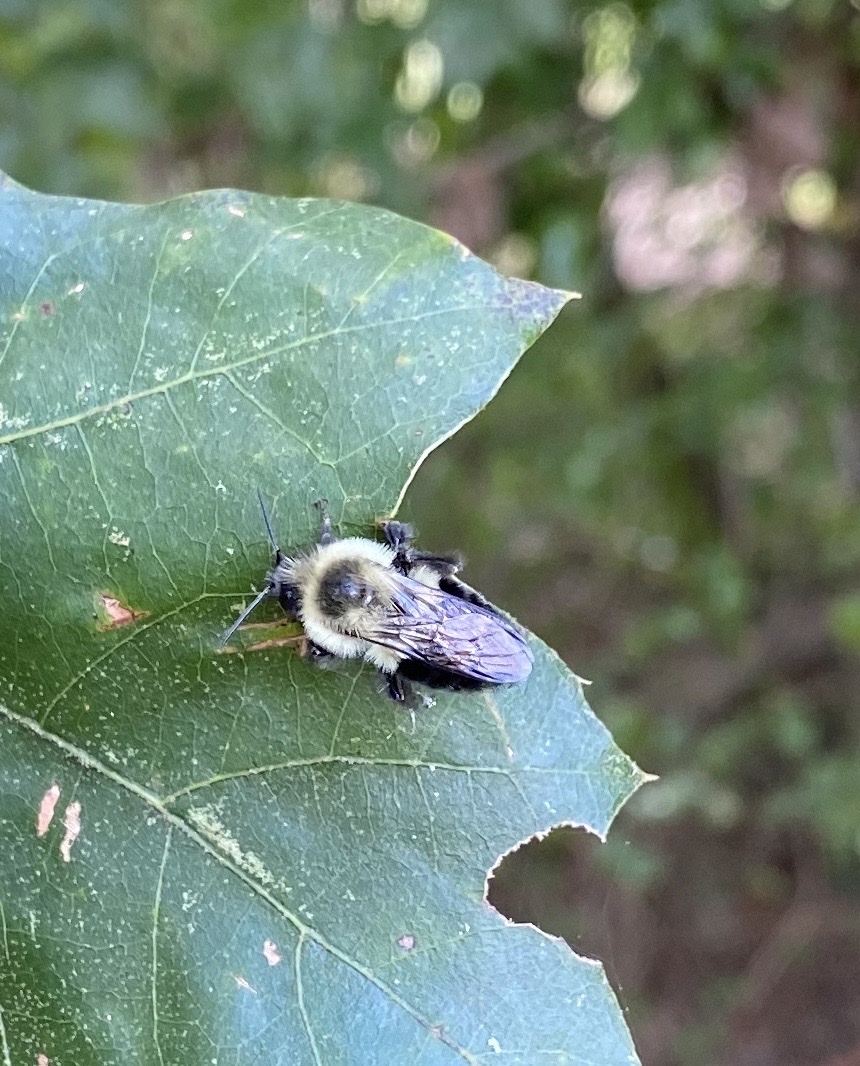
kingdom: Animalia
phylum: Arthropoda
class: Insecta
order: Hymenoptera
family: Apidae
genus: Bombus
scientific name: Bombus impatiens
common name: Common eastern bumble bee
